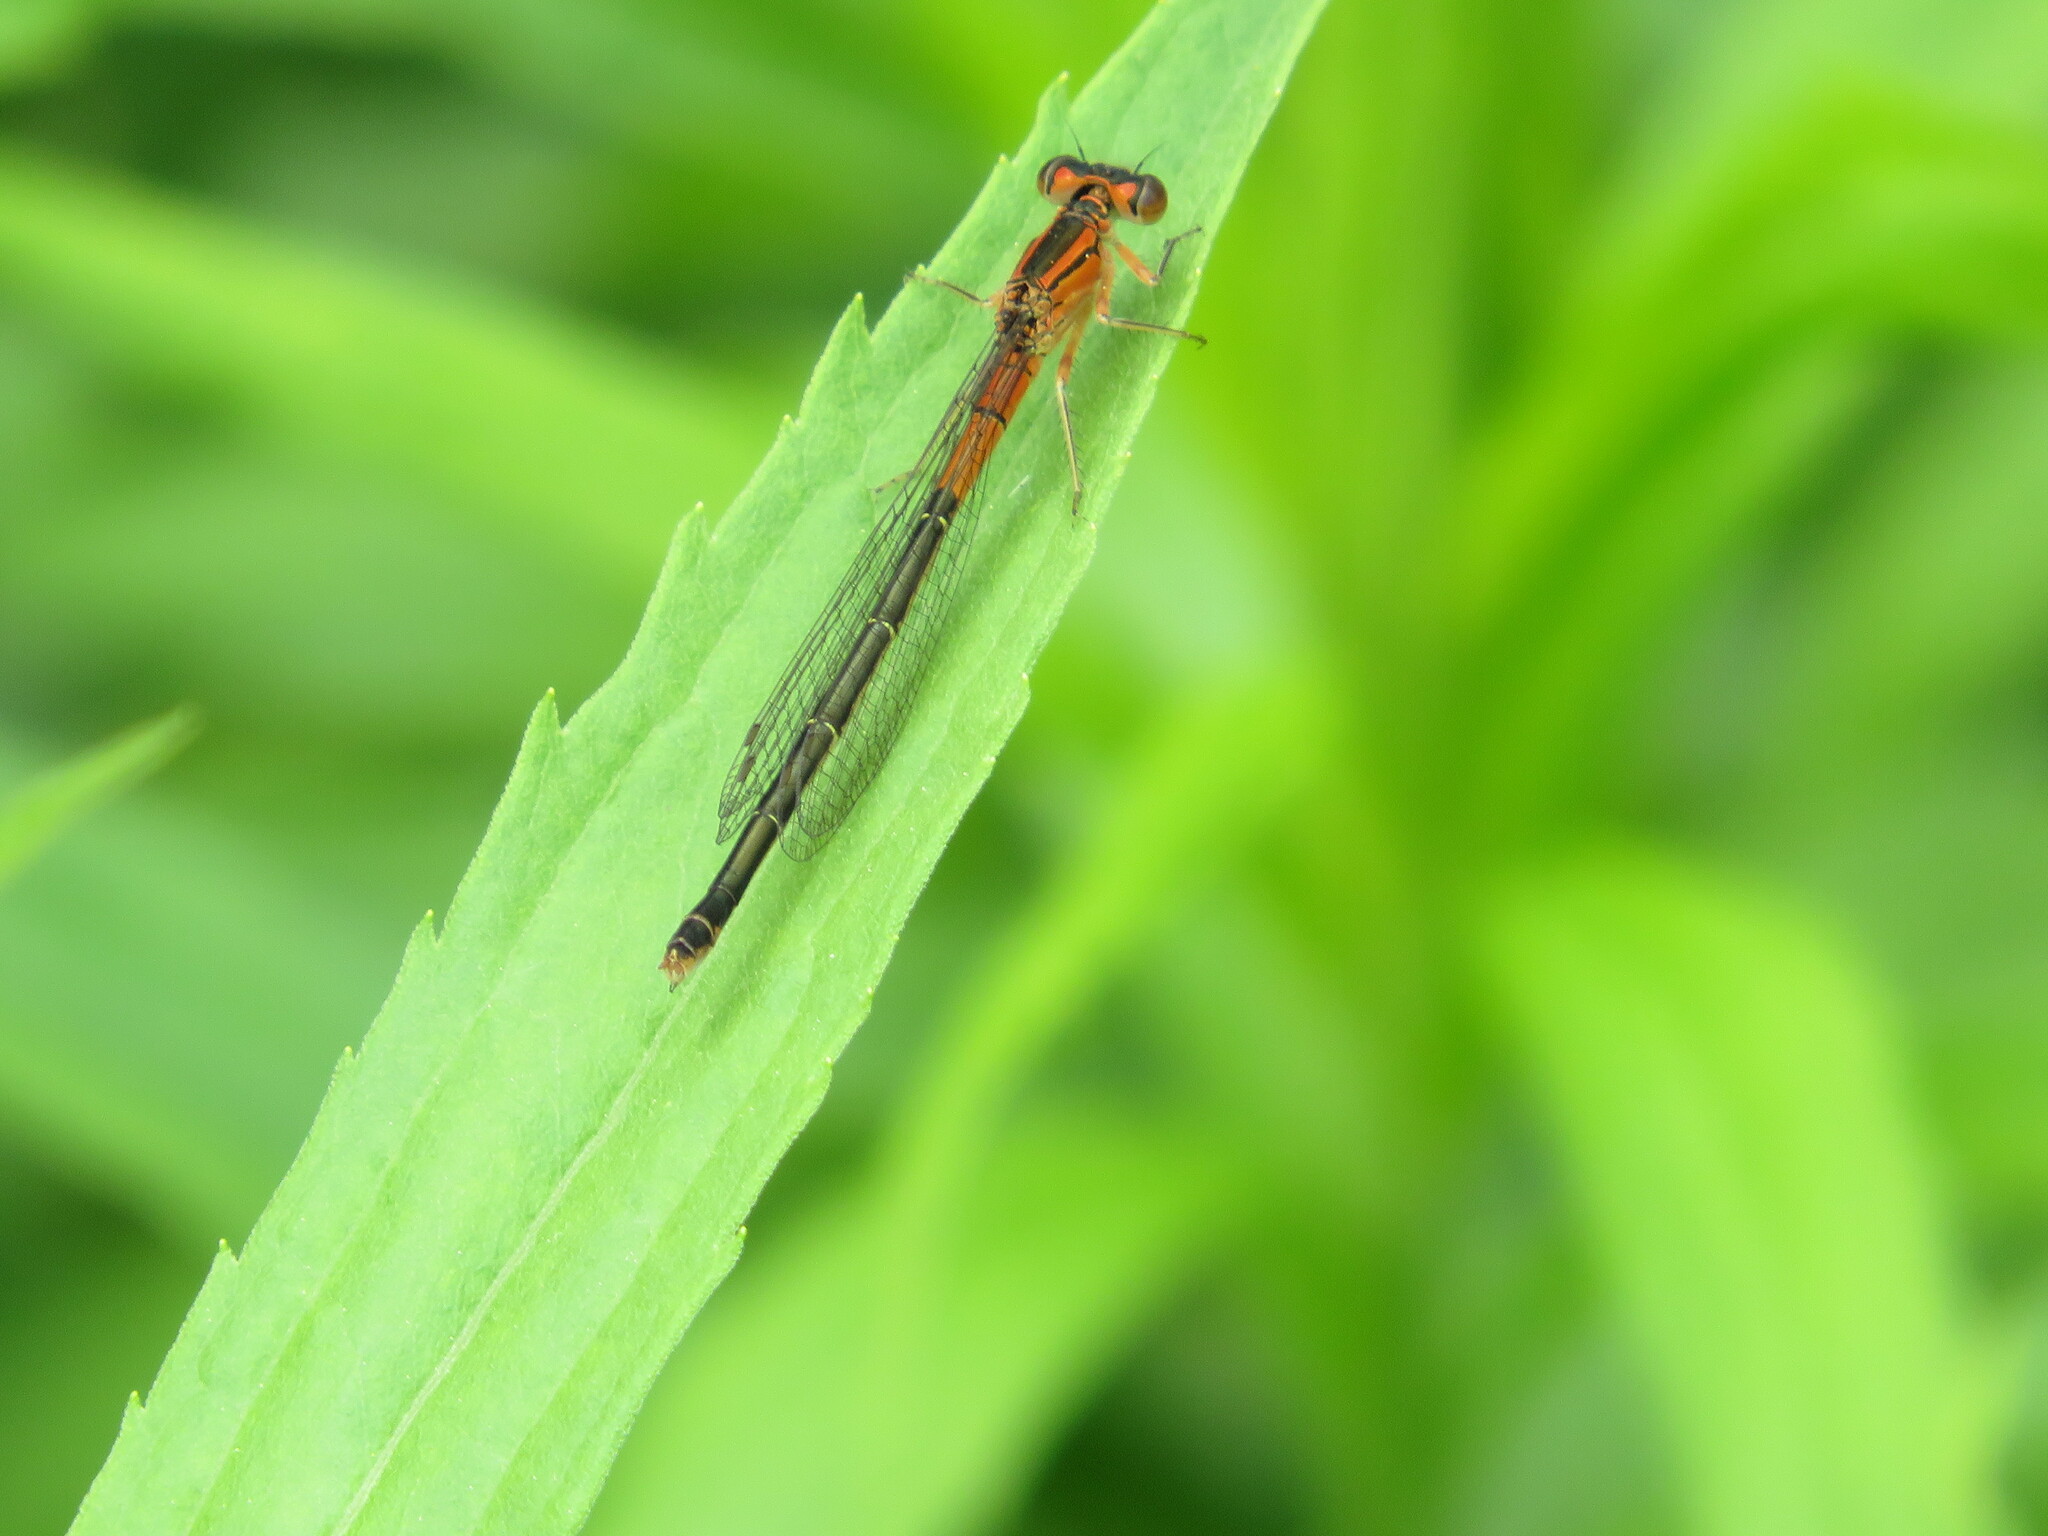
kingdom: Animalia
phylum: Arthropoda
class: Insecta
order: Odonata
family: Coenagrionidae
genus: Ischnura
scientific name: Ischnura verticalis
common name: Eastern forktail
